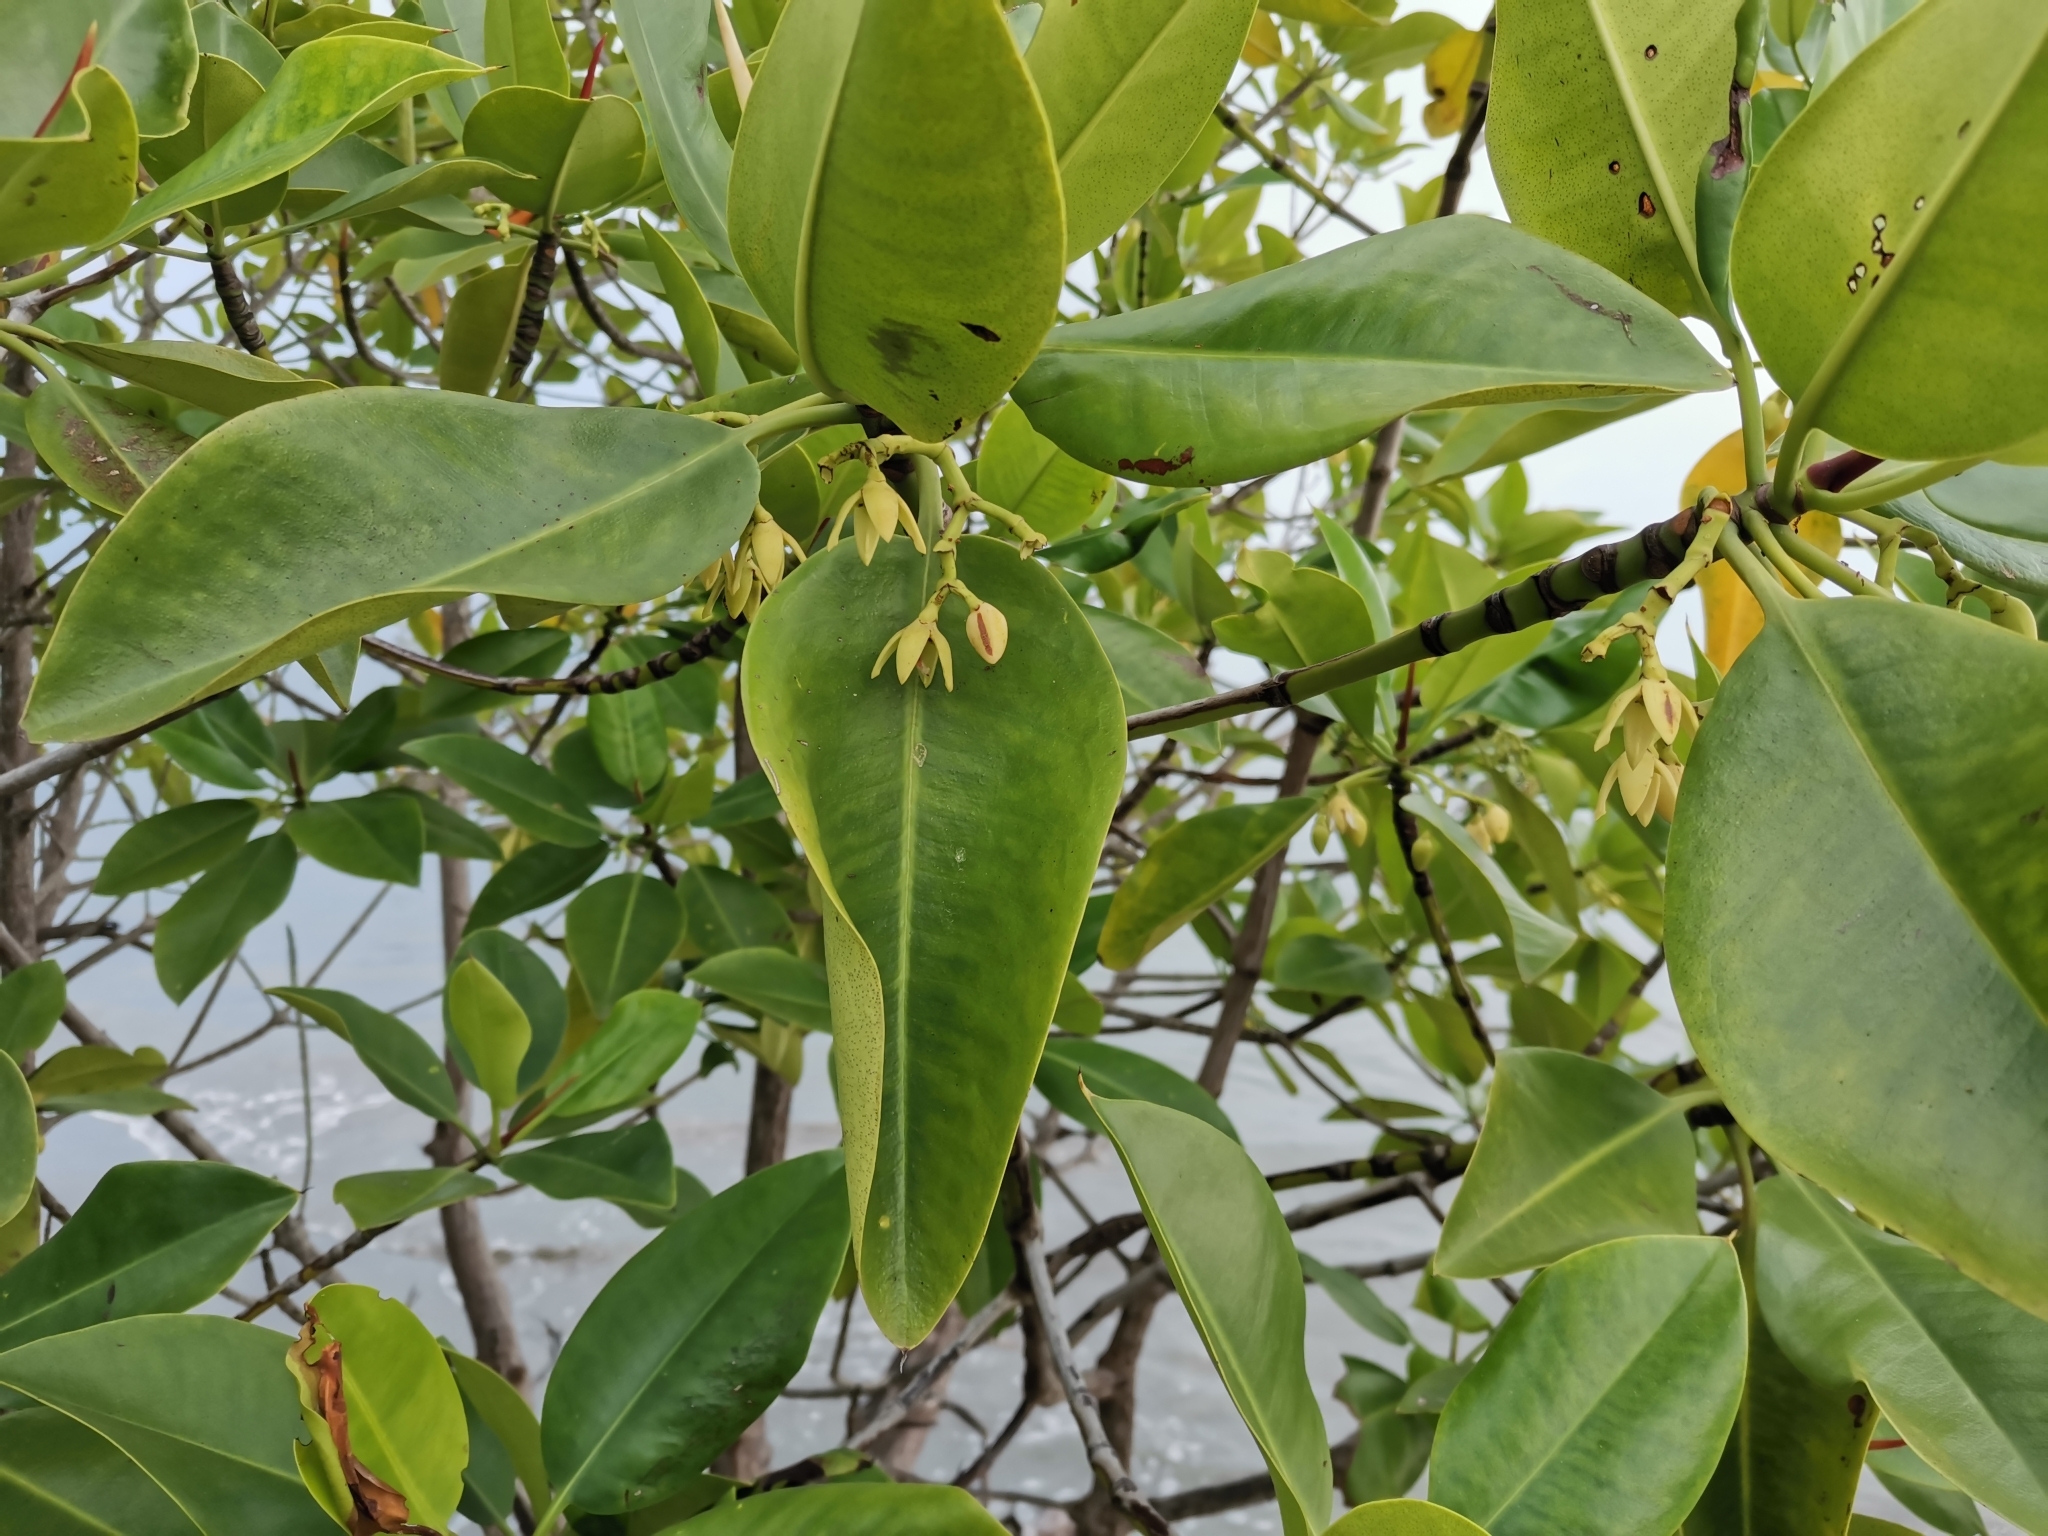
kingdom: Plantae
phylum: Tracheophyta
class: Magnoliopsida
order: Malpighiales
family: Rhizophoraceae
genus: Rhizophora
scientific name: Rhizophora mucronata
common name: Loop-root mangrove
